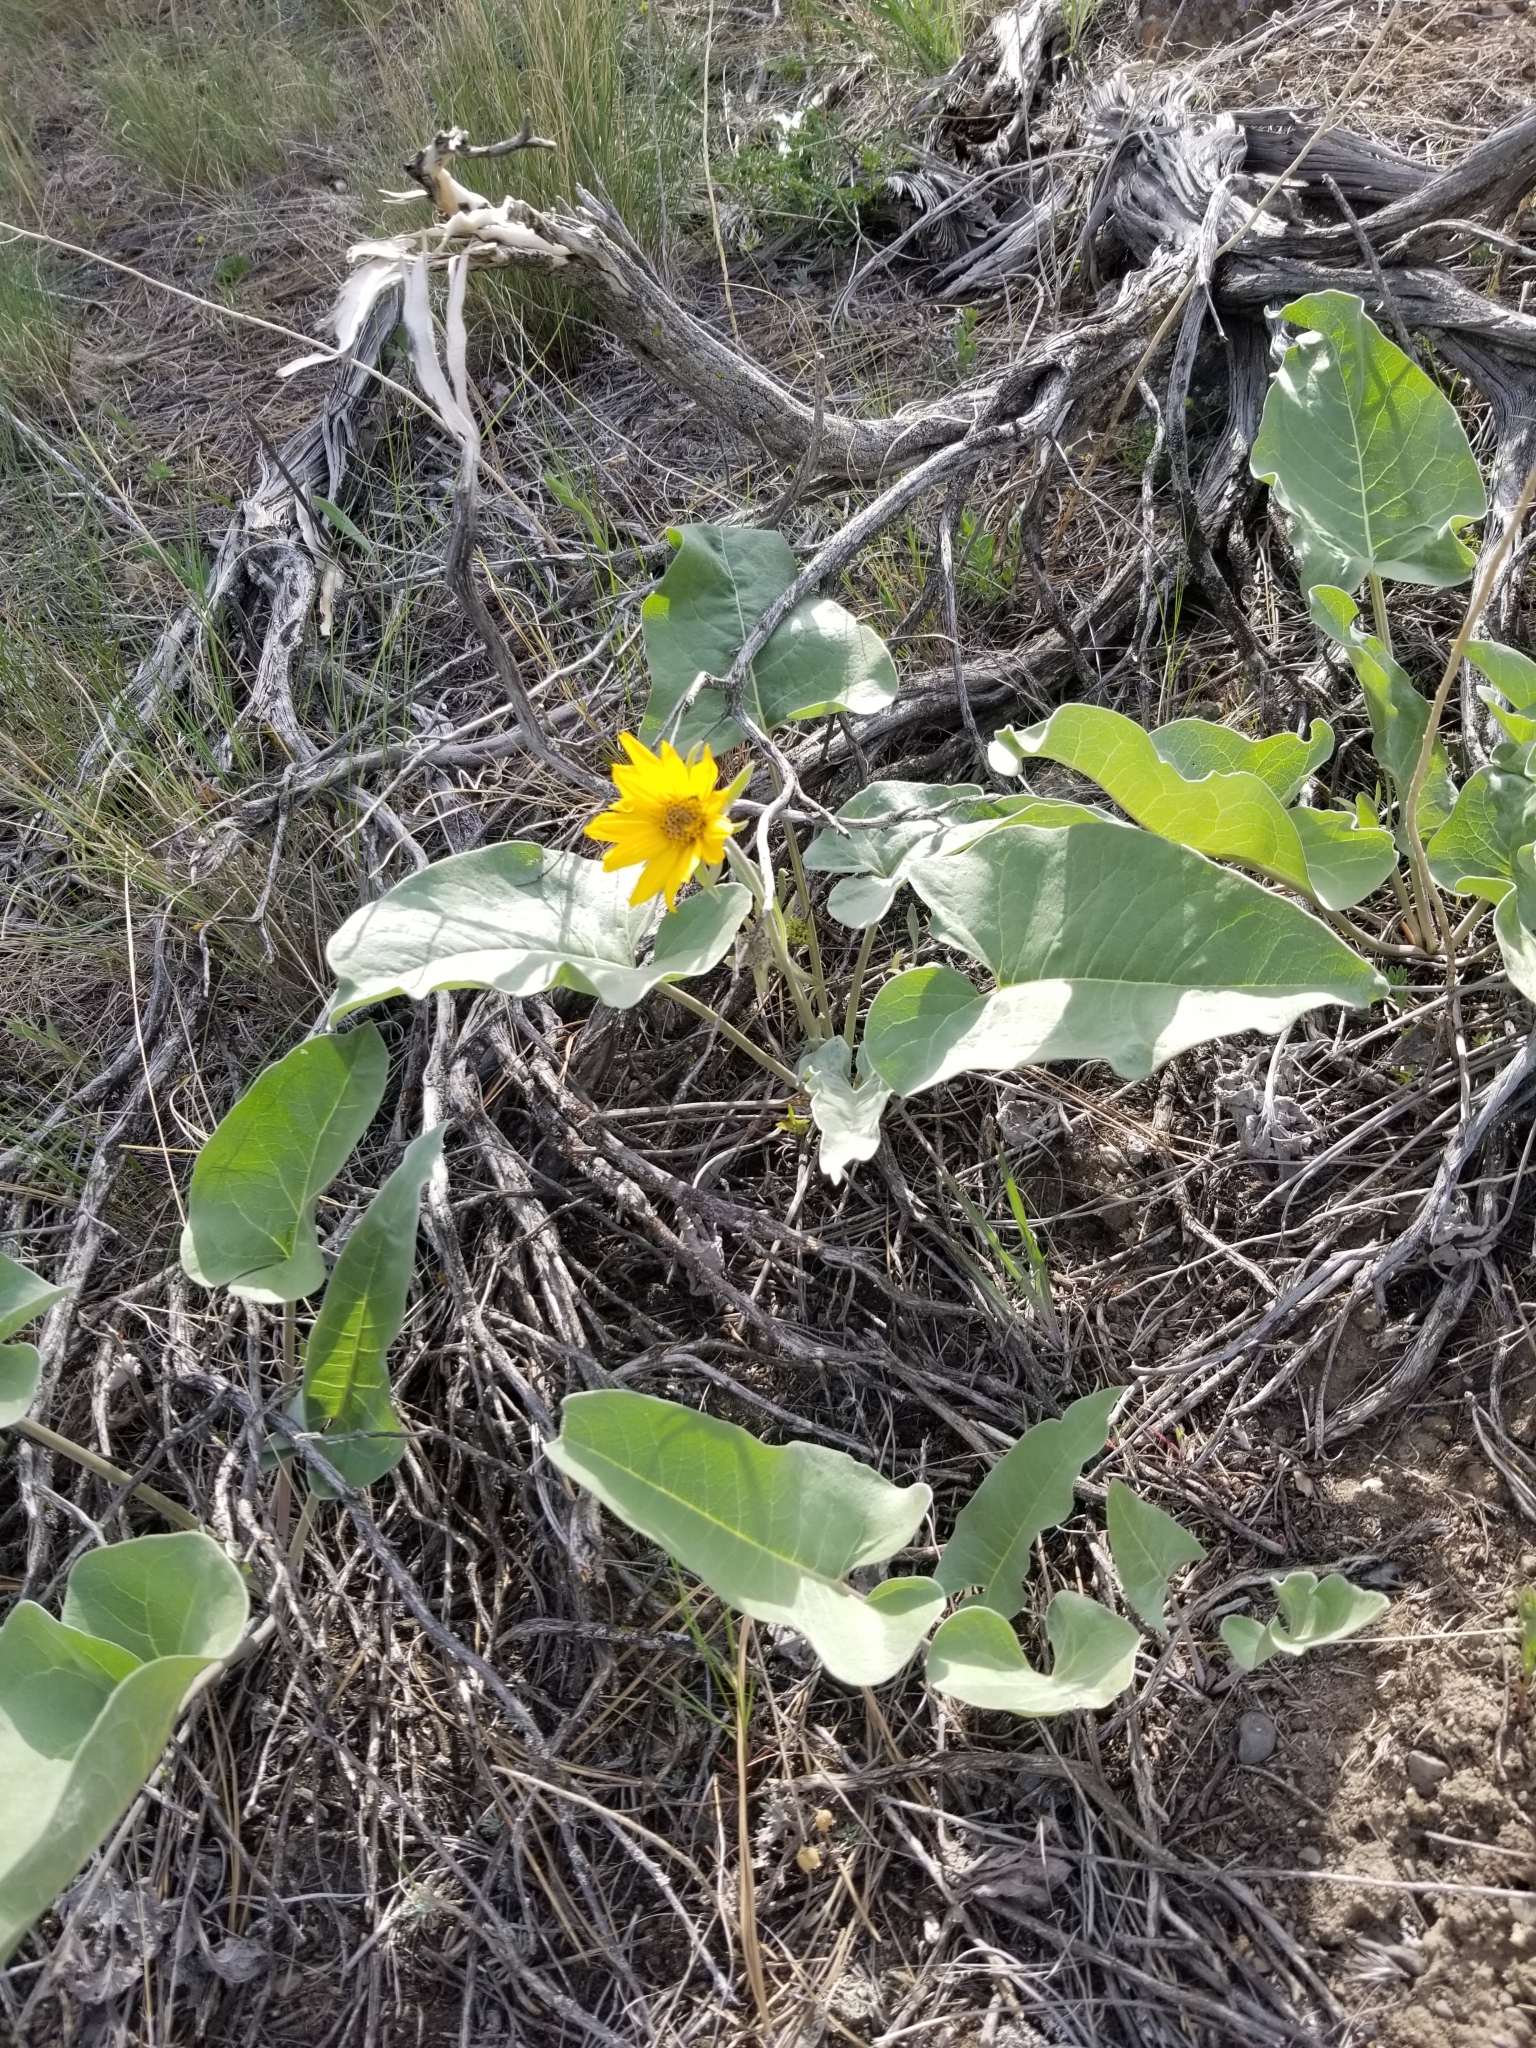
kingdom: Plantae
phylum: Tracheophyta
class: Magnoliopsida
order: Asterales
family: Asteraceae
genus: Wyethia
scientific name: Wyethia sagittata
